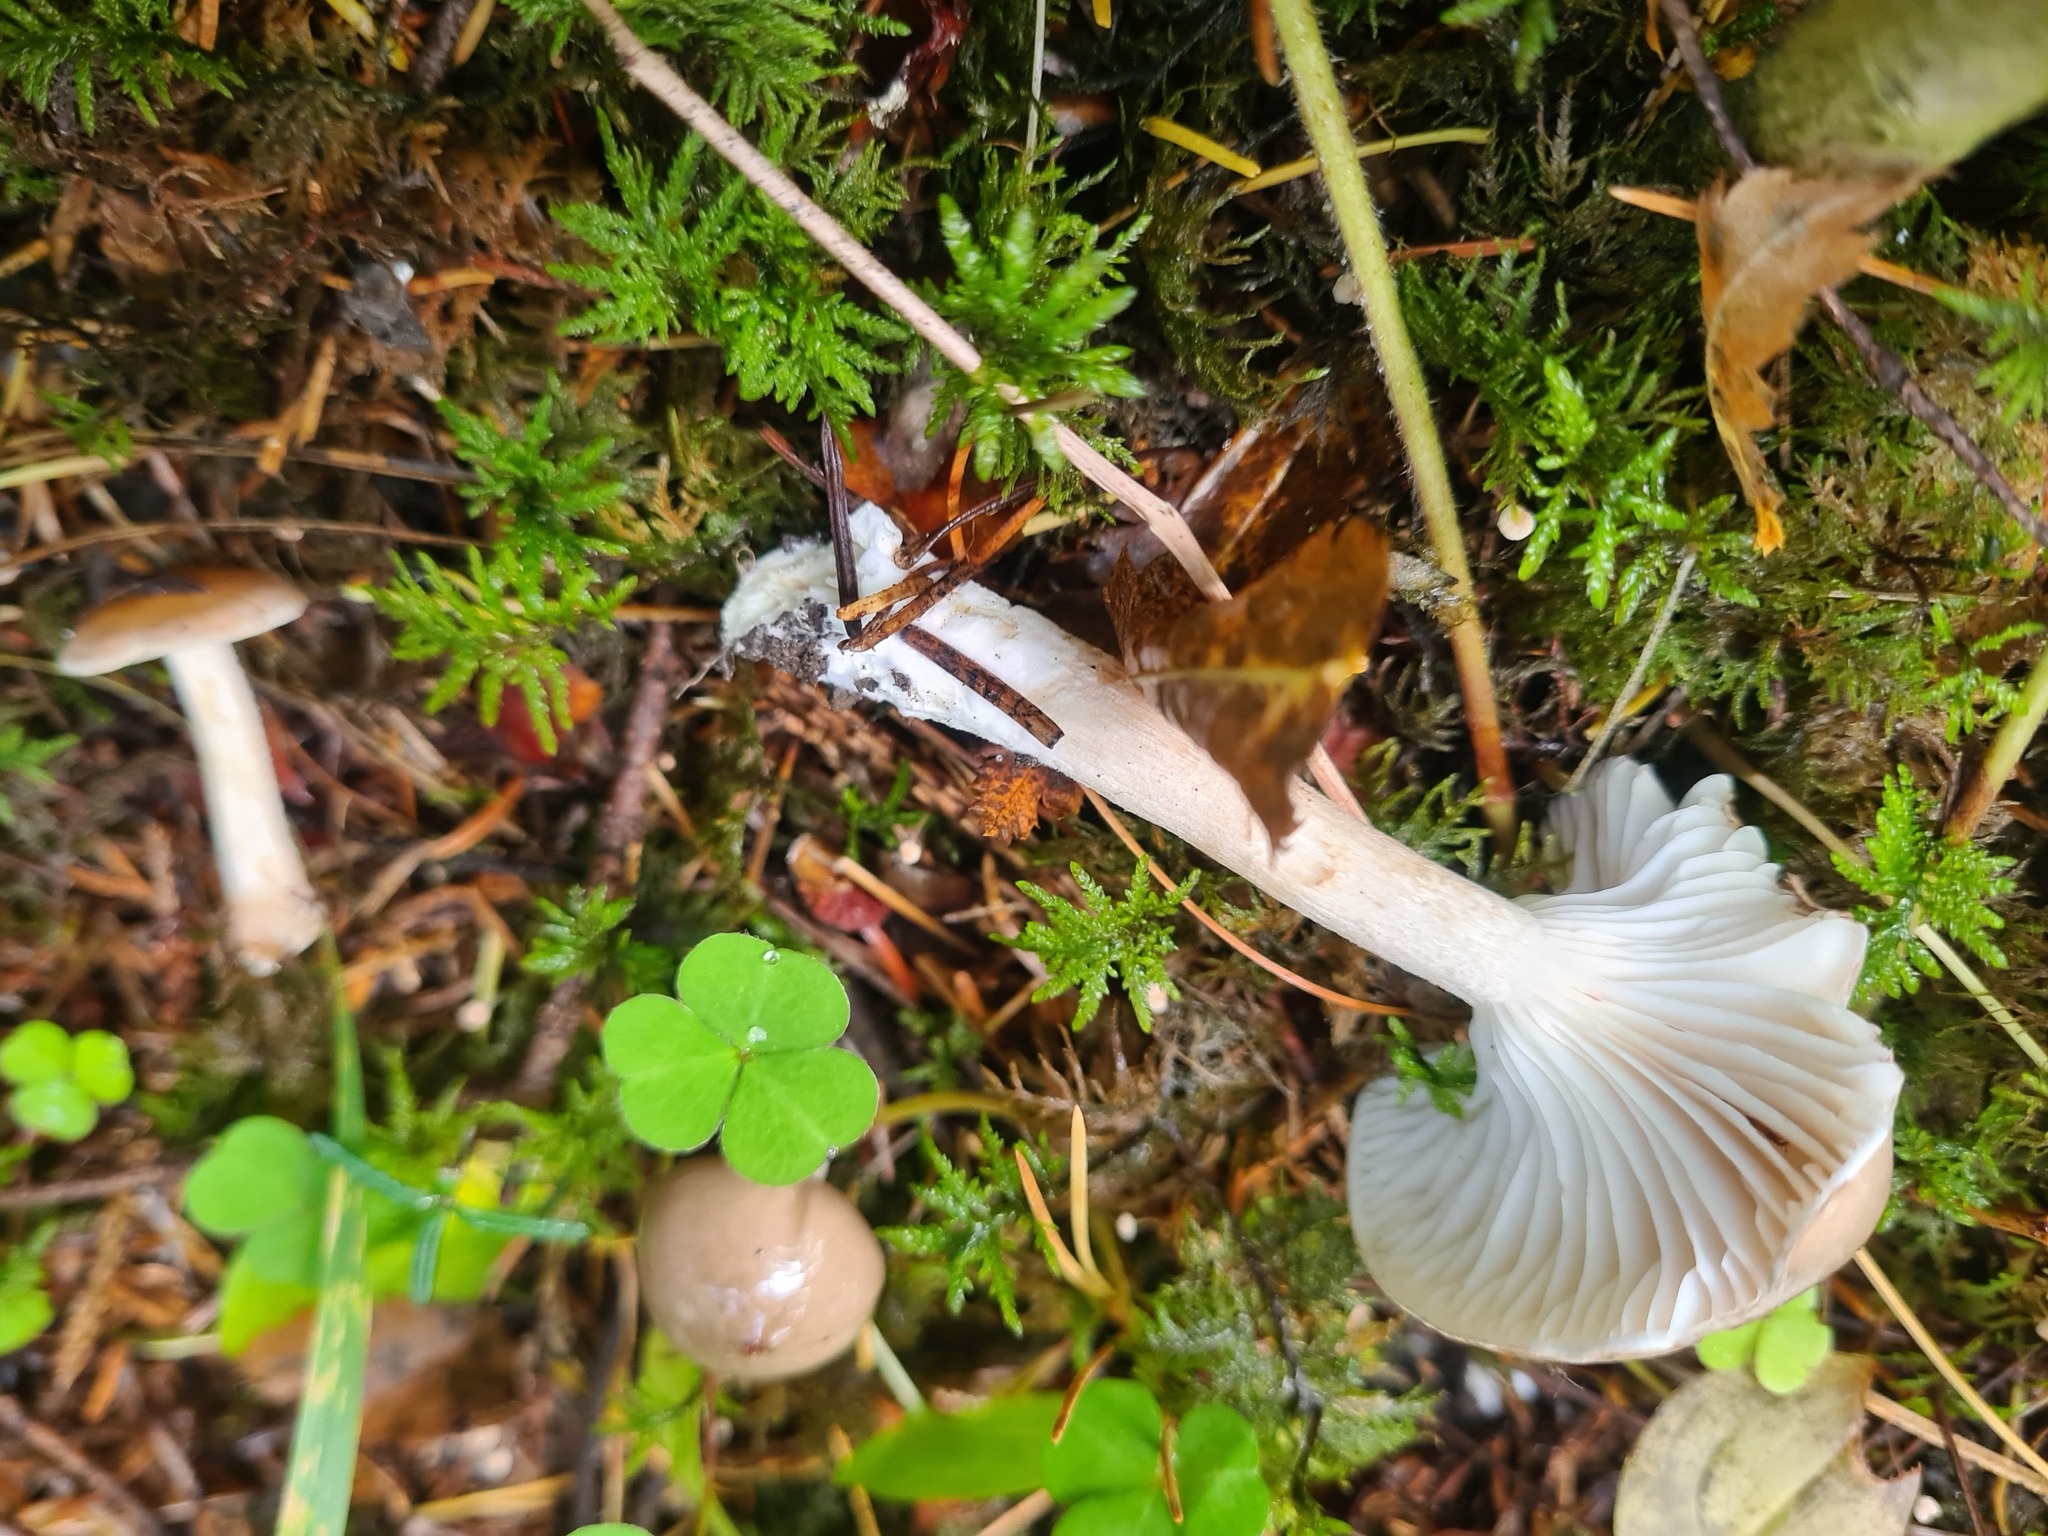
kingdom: Fungi
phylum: Basidiomycota
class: Agaricomycetes
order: Agaricales
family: Hygrophoraceae
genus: Hygrophorus
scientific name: Hygrophorus agathosmus
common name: Almond woodwax
